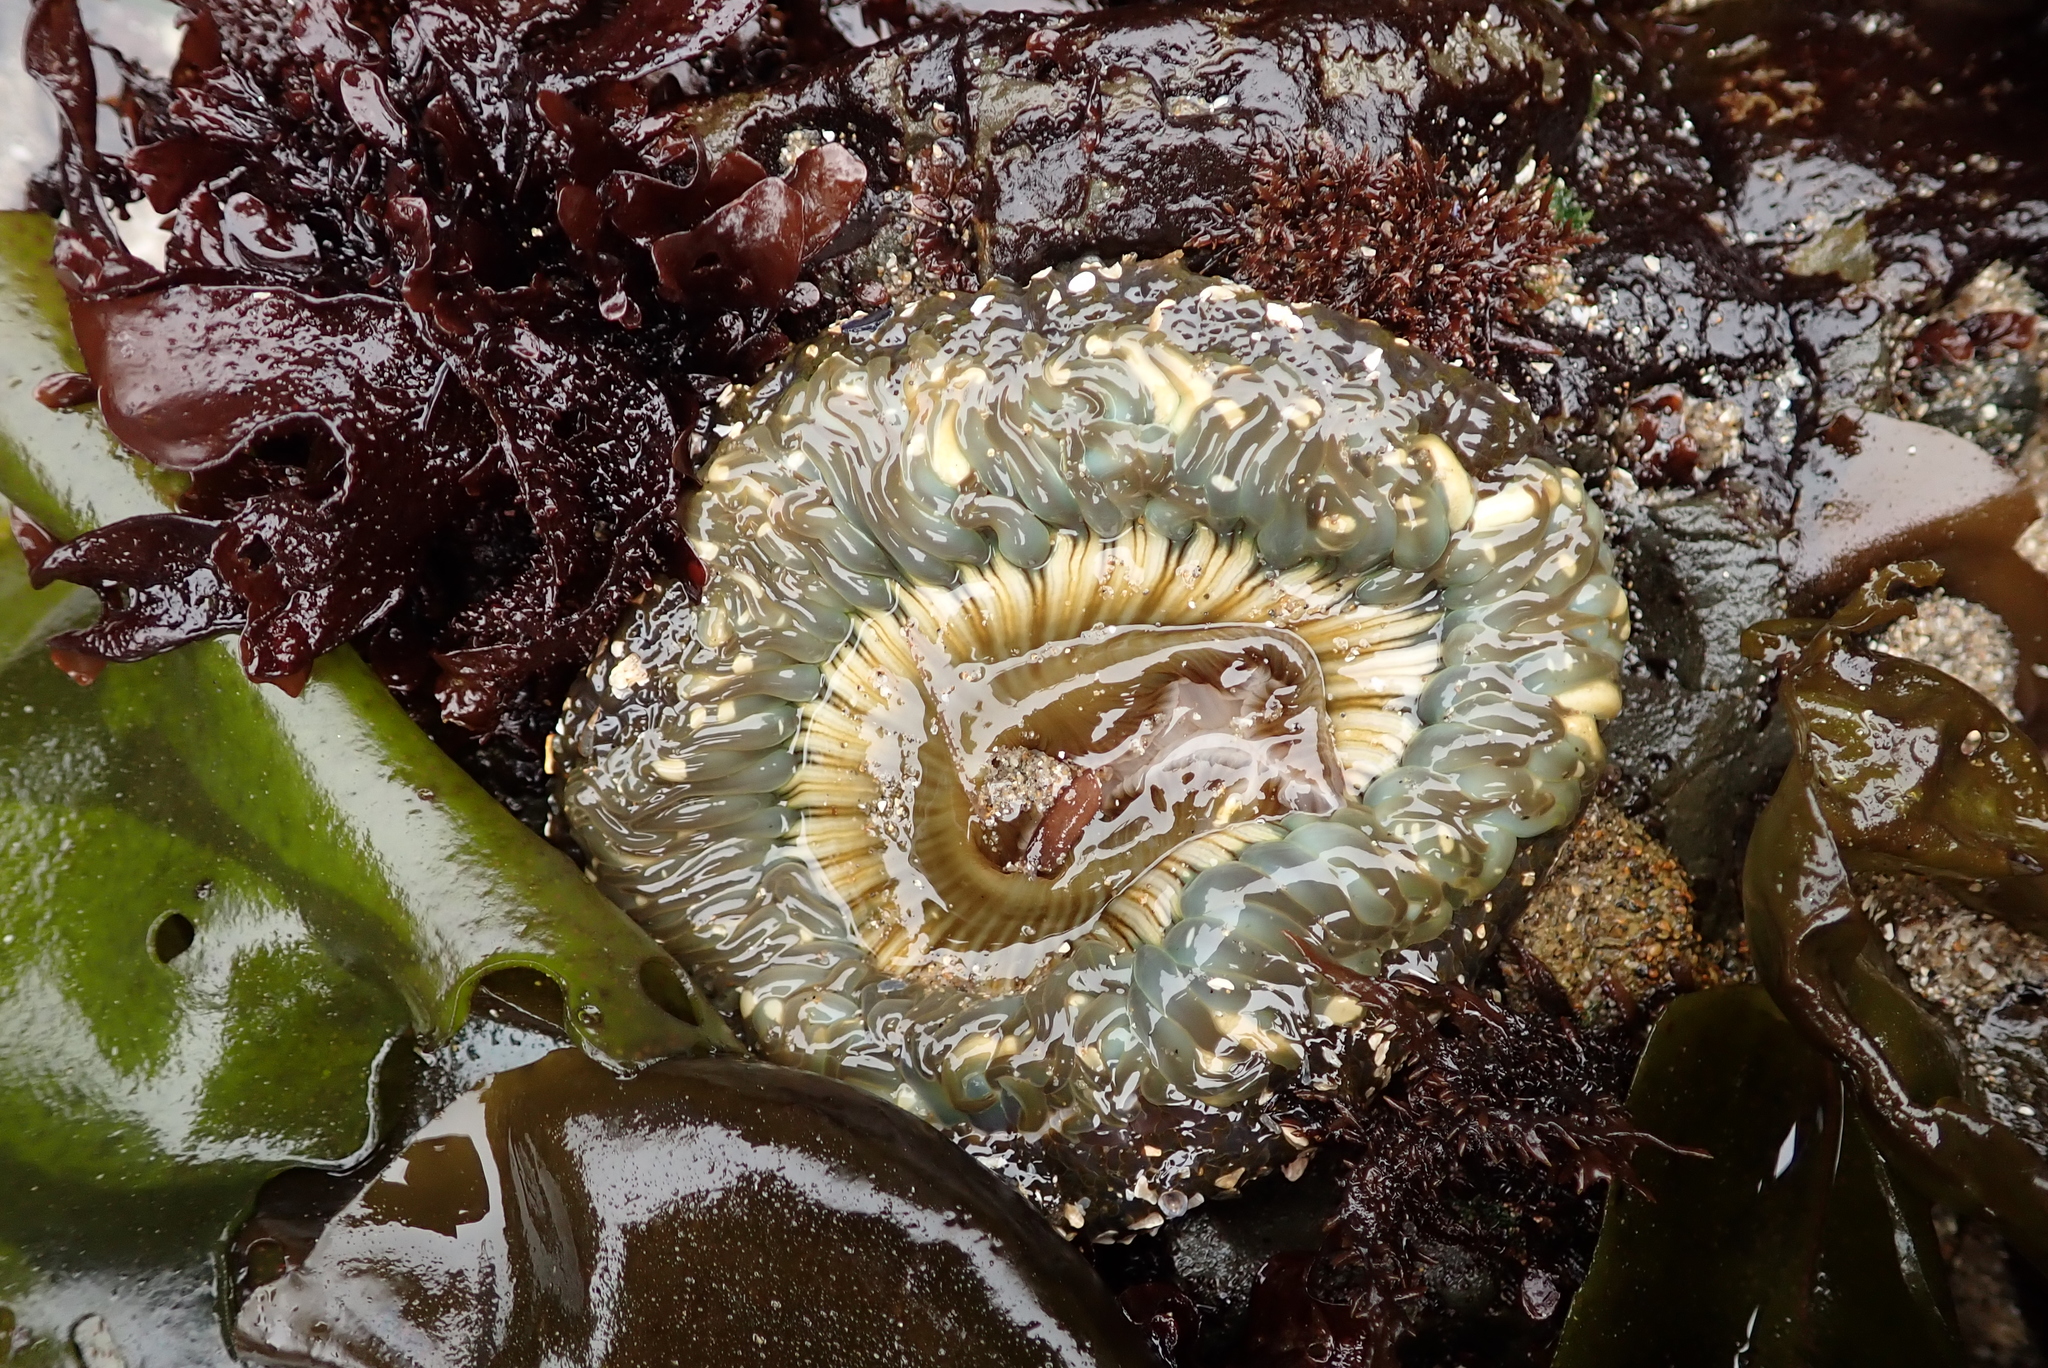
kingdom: Animalia
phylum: Cnidaria
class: Anthozoa
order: Actiniaria
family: Actiniidae
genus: Anthopleura
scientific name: Anthopleura sola
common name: Sun anemone
